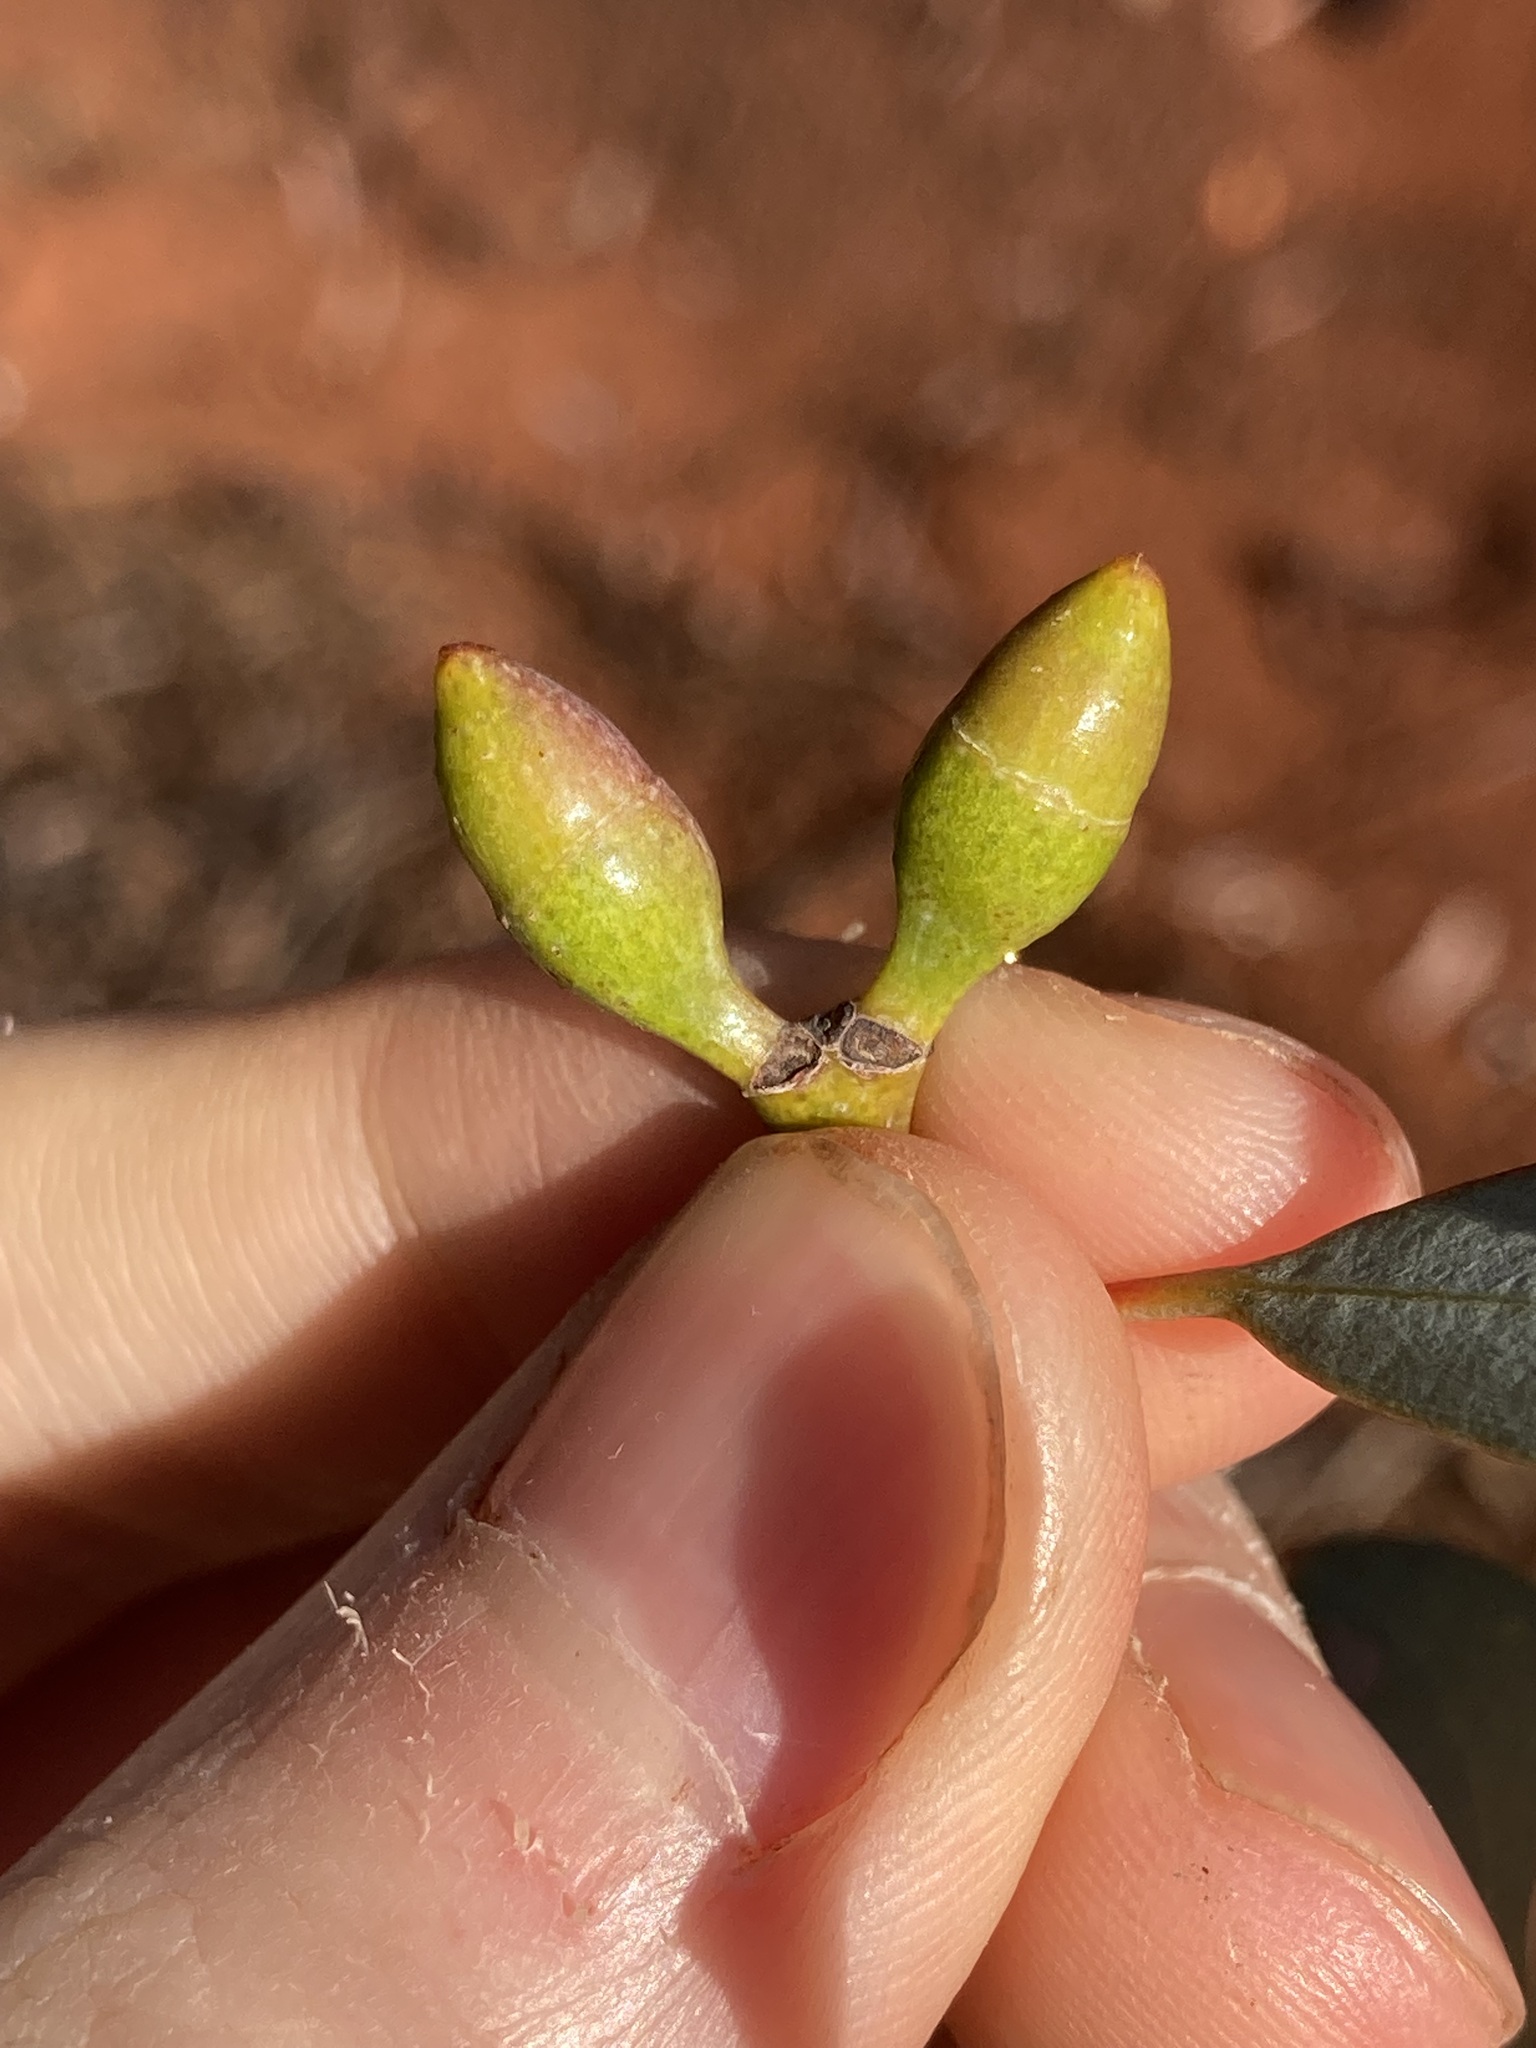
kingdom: Plantae
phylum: Tracheophyta
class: Magnoliopsida
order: Myrtales
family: Myrtaceae
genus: Eucalyptus
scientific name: Eucalyptus campaspe
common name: Silver-top gimlet
